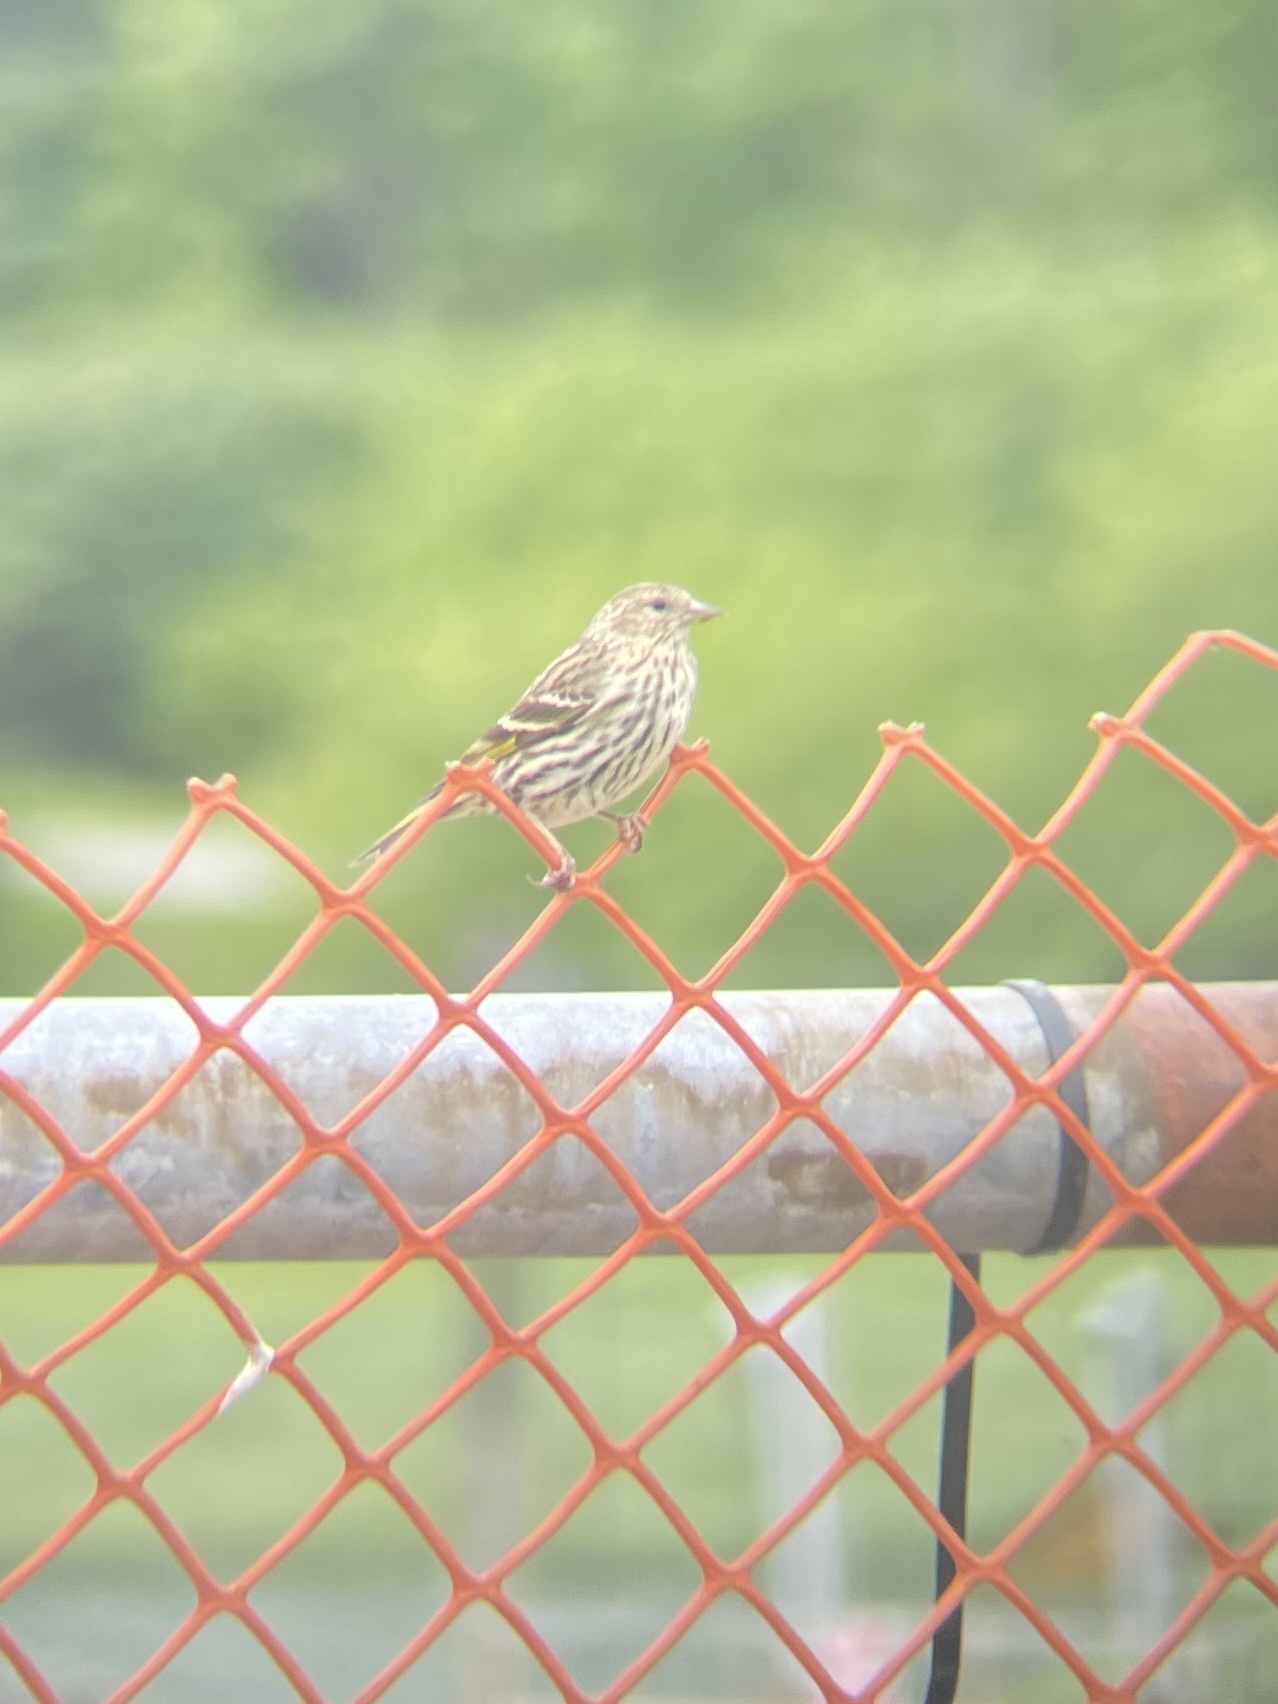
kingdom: Animalia
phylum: Chordata
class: Aves
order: Passeriformes
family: Fringillidae
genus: Spinus
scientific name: Spinus pinus
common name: Pine siskin
